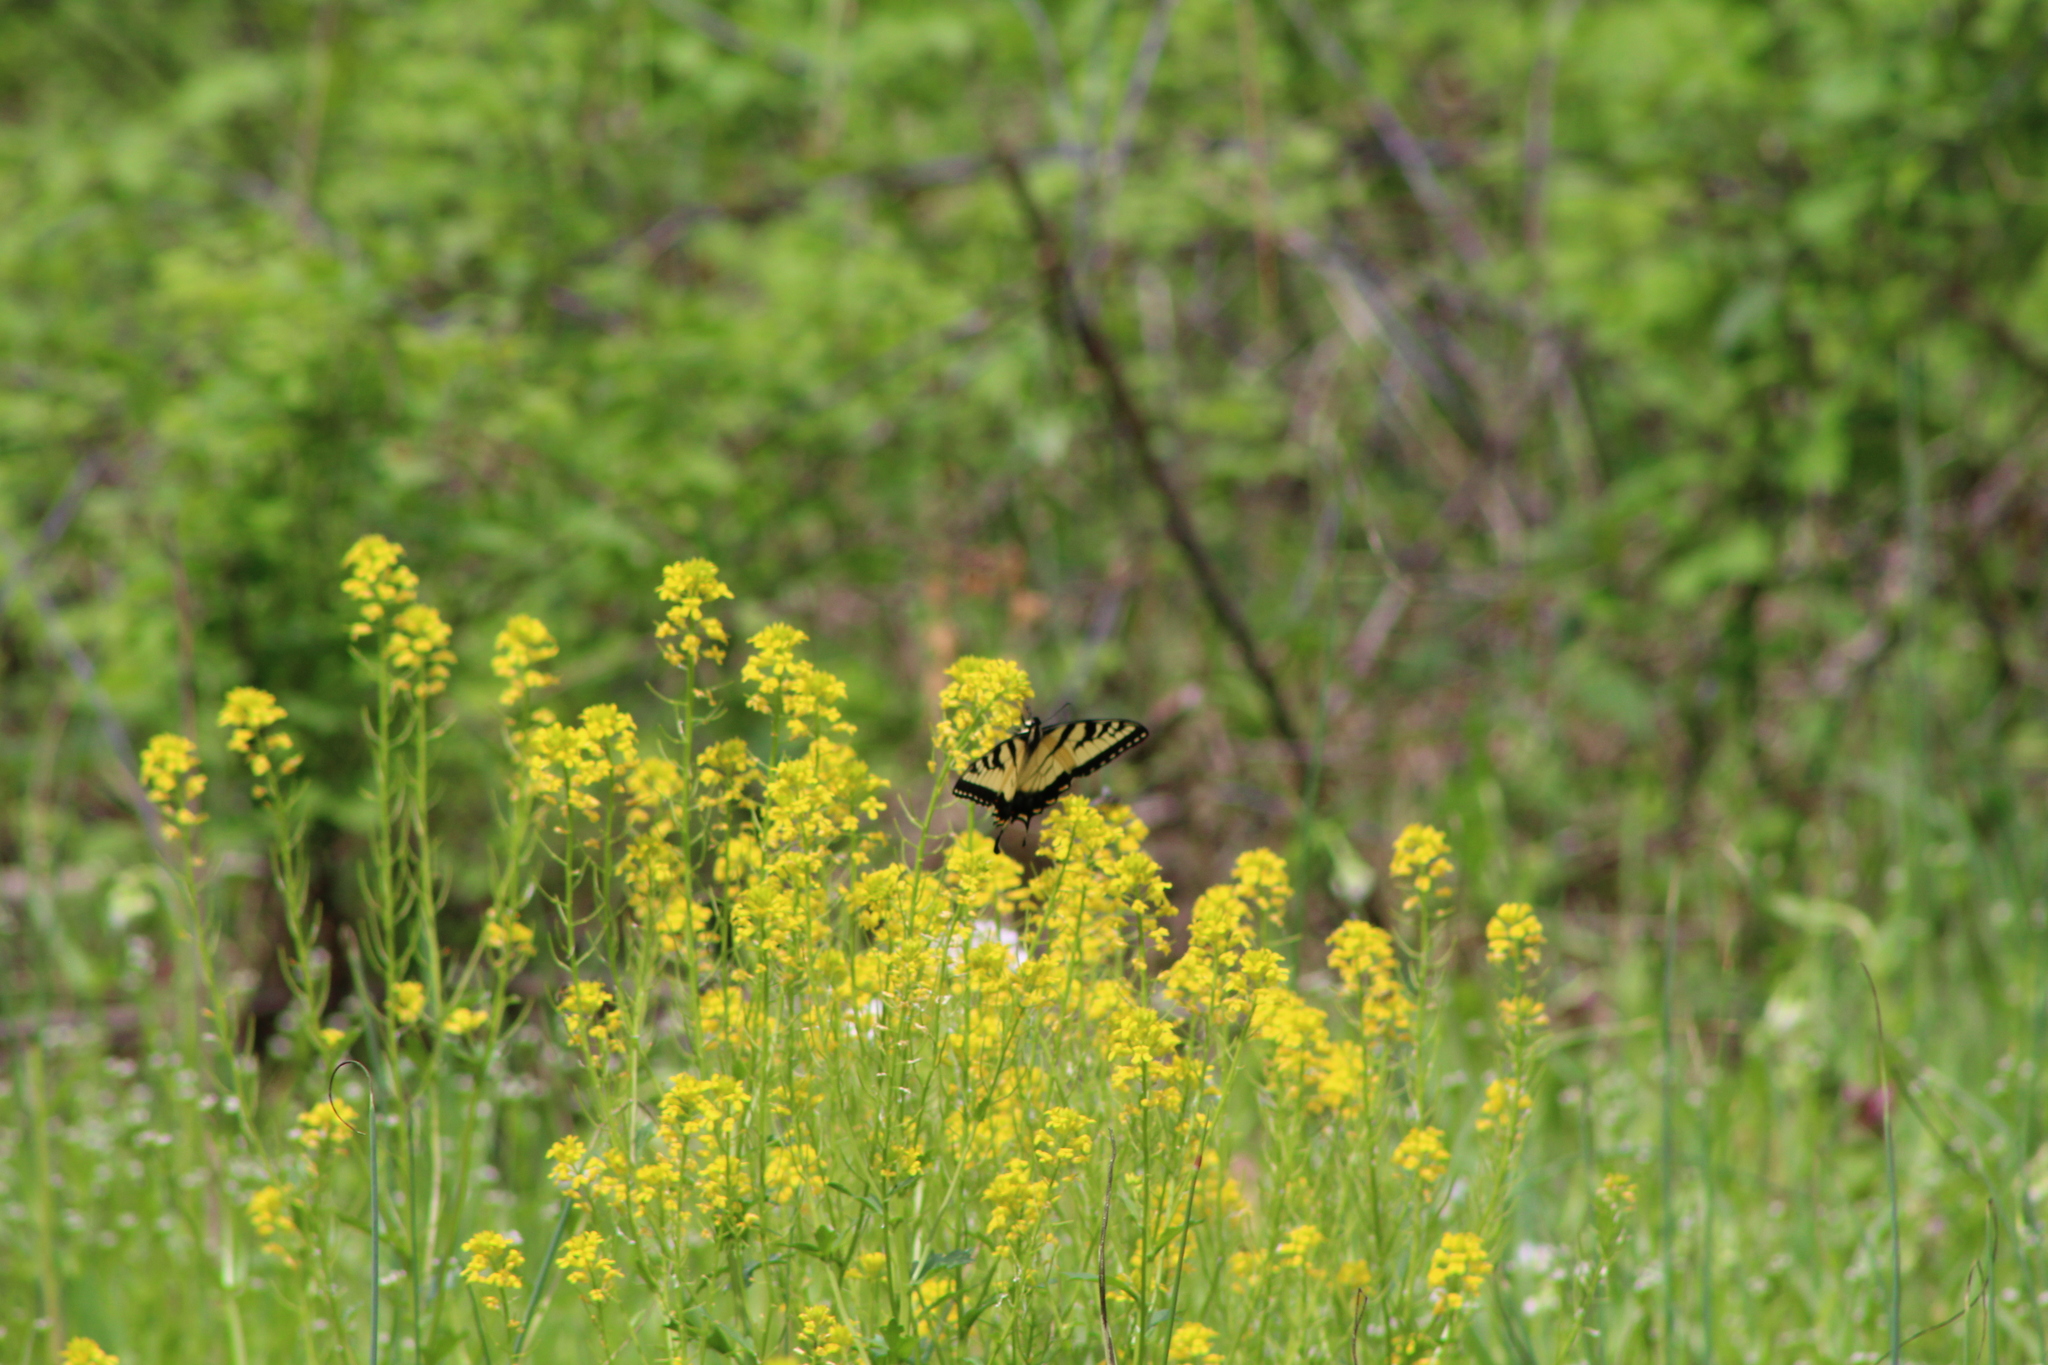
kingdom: Animalia
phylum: Arthropoda
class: Insecta
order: Lepidoptera
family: Papilionidae
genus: Papilio
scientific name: Papilio glaucus
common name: Tiger swallowtail
